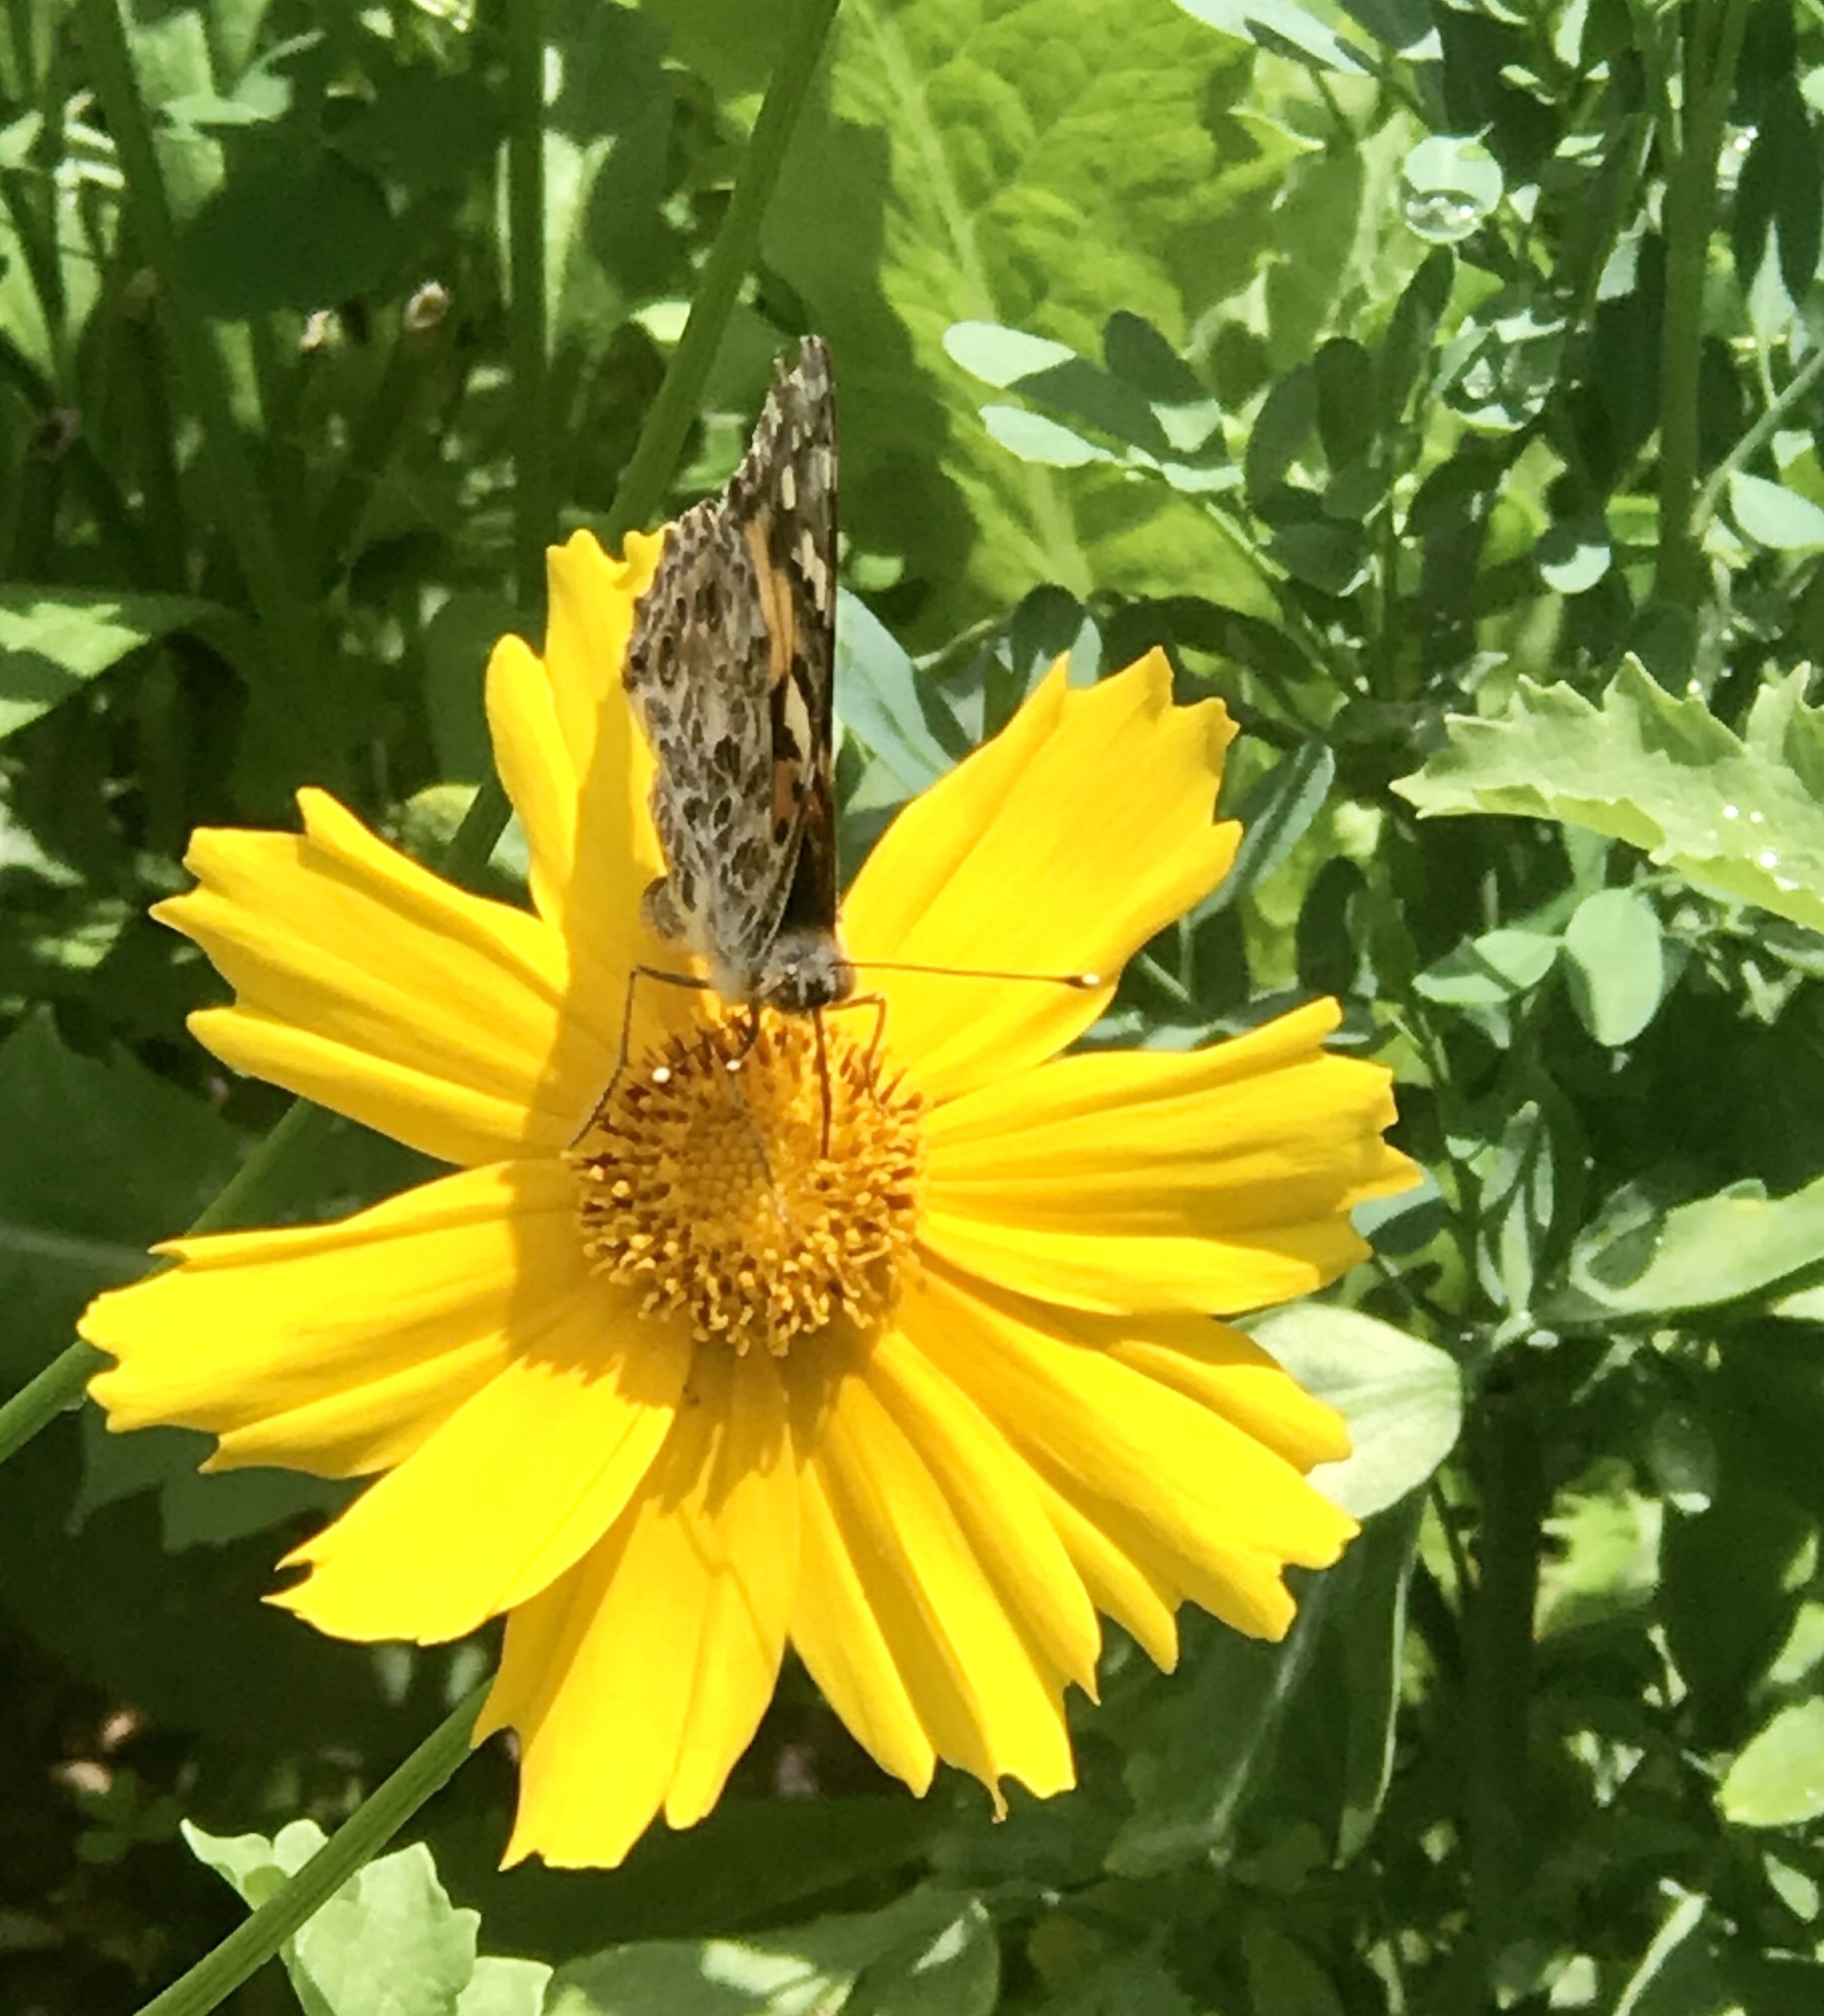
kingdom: Animalia
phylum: Arthropoda
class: Insecta
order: Lepidoptera
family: Nymphalidae
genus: Vanessa
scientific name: Vanessa cardui
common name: Painted lady
